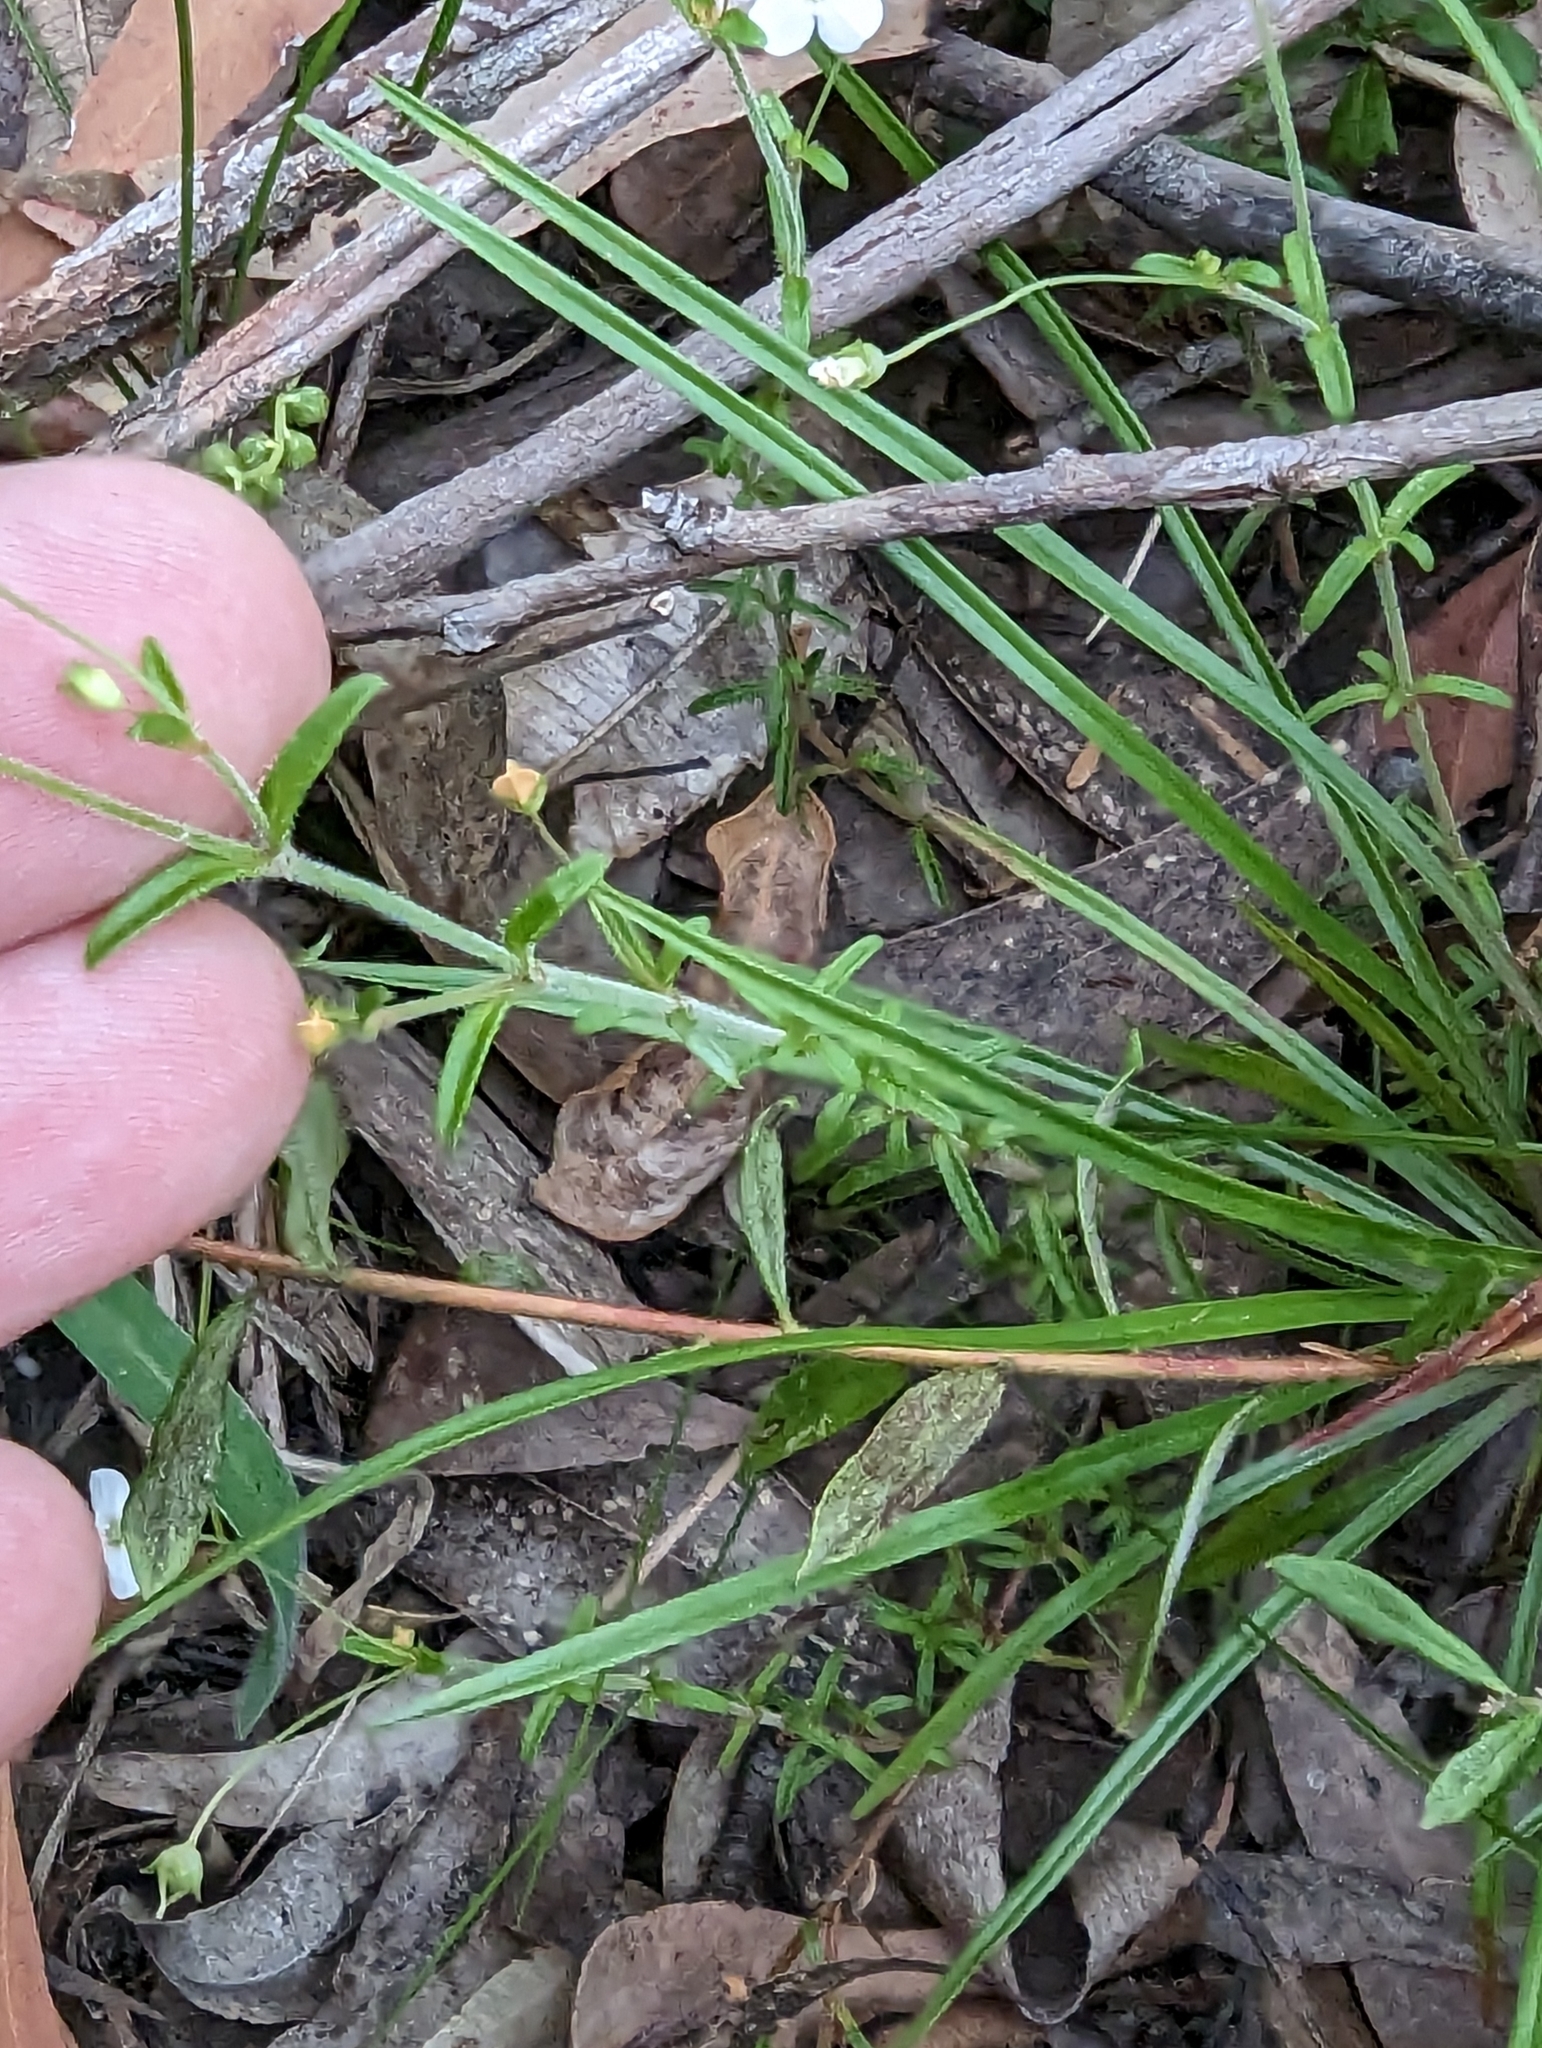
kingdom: Plantae
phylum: Tracheophyta
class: Magnoliopsida
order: Gentianales
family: Loganiaceae
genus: Mitrasacme
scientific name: Mitrasacme polymorpha
